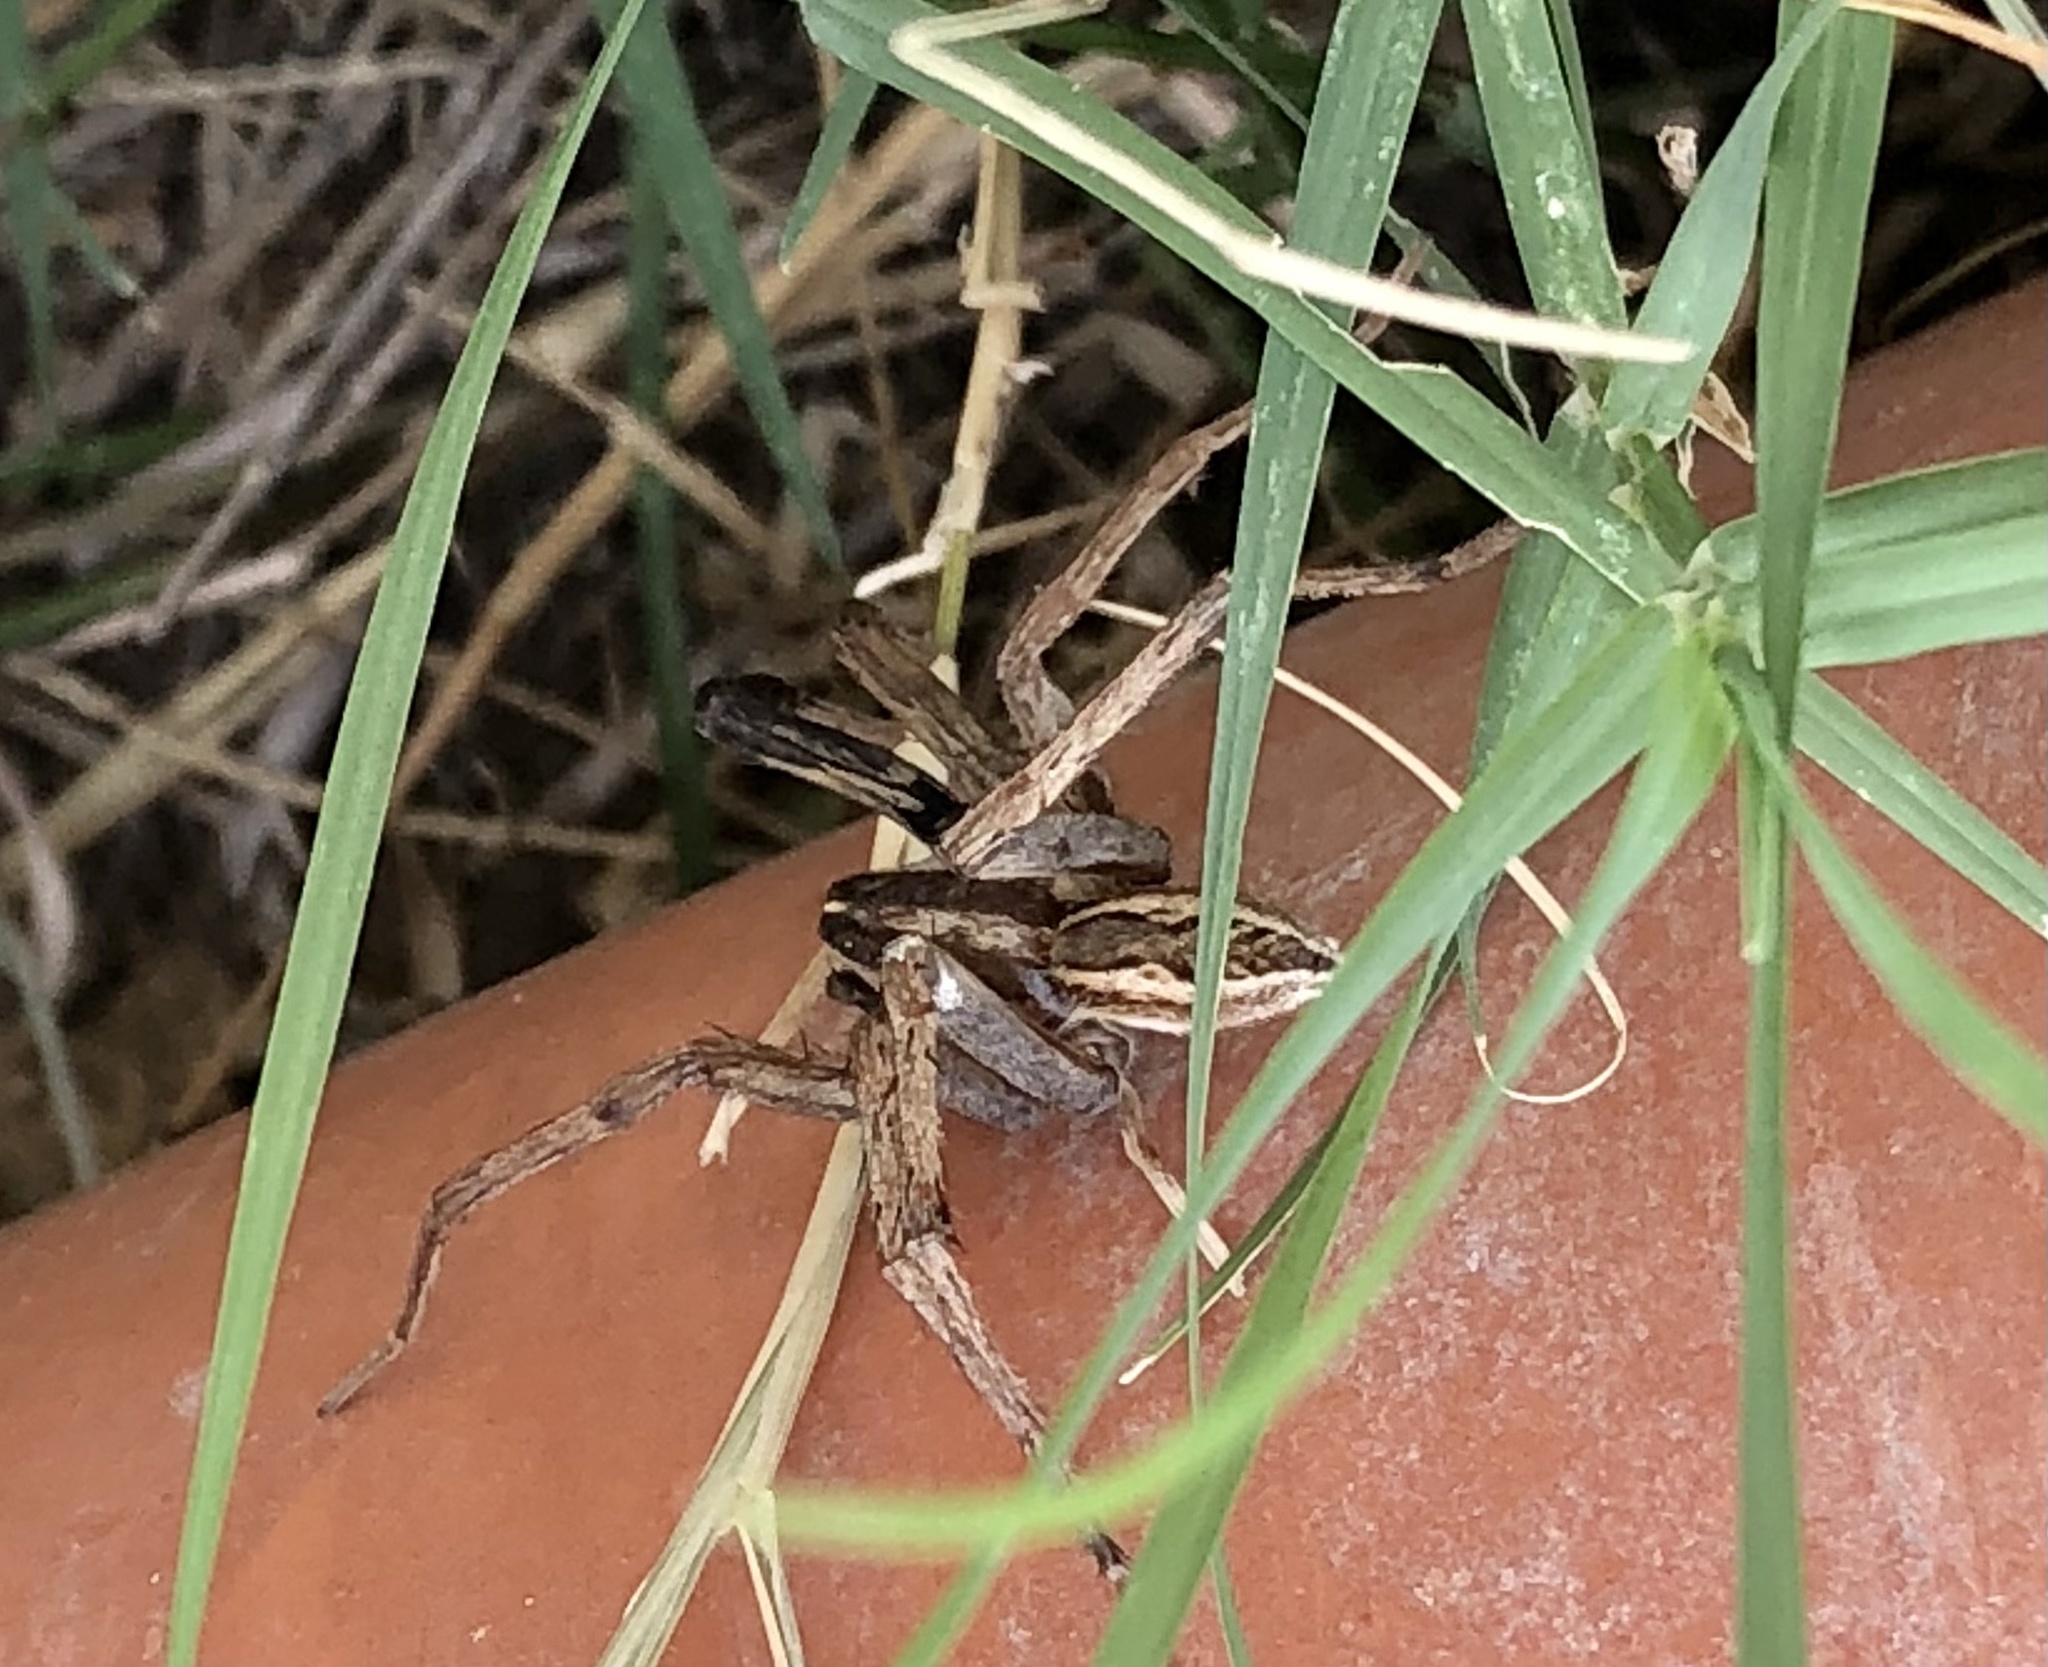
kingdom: Animalia
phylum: Arthropoda
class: Arachnida
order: Araneae
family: Lycosidae
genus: Rabidosa
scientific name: Rabidosa rabida
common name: Rabid wolf spider
